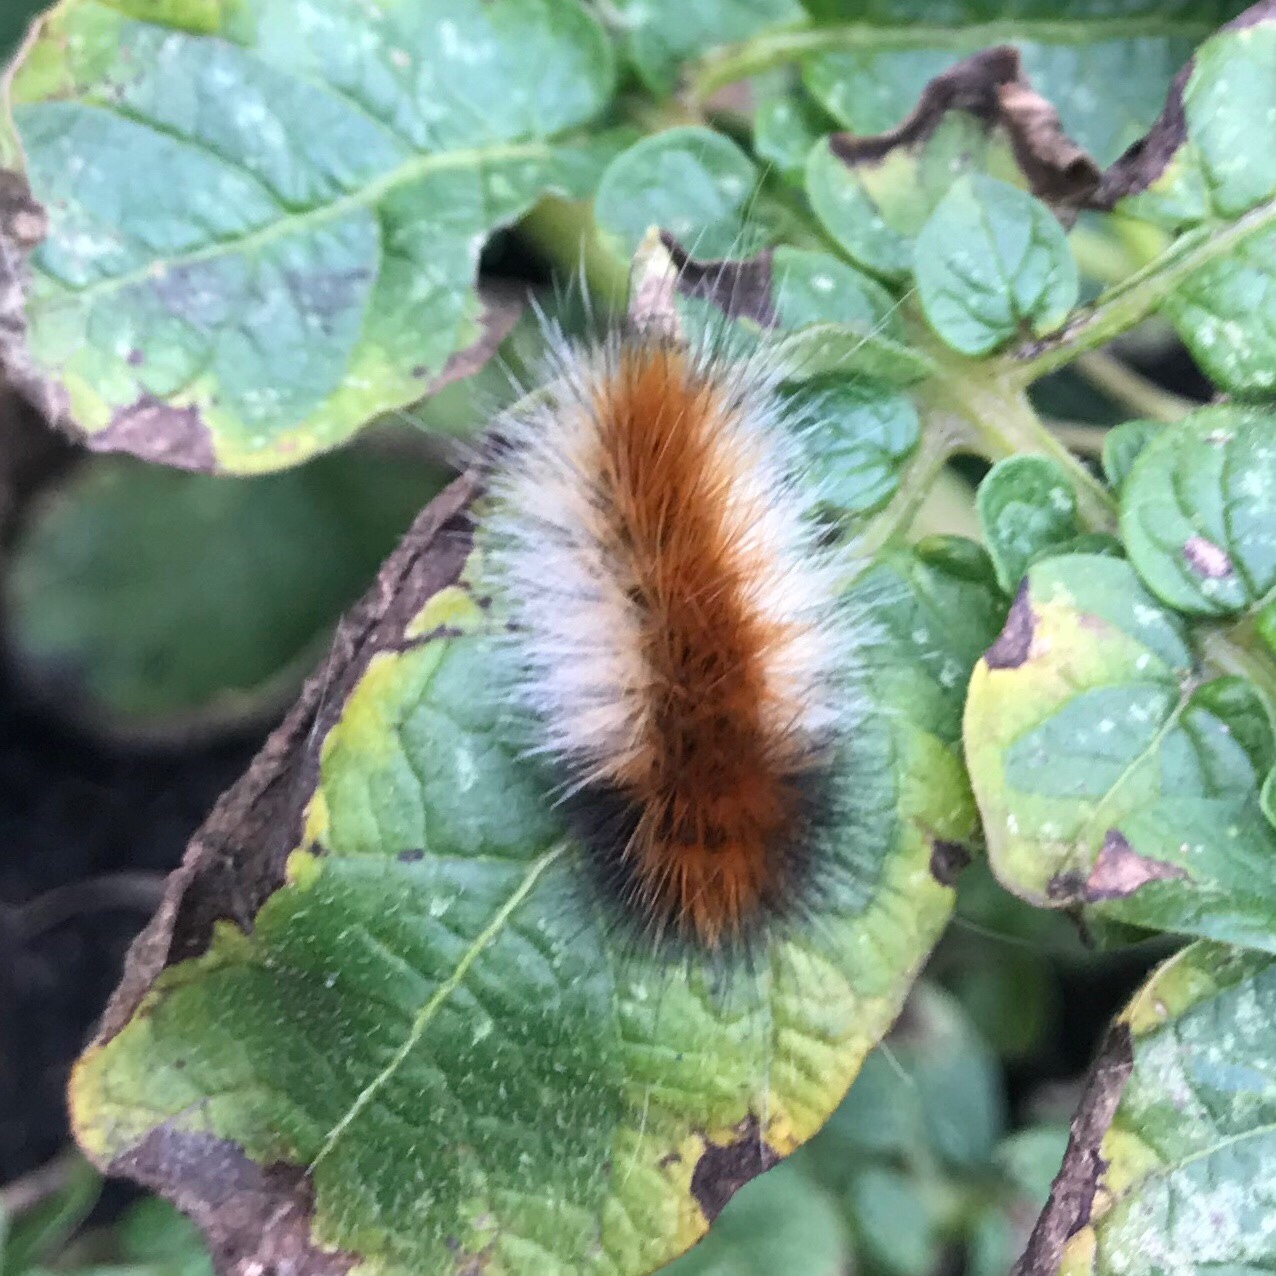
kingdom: Animalia
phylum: Arthropoda
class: Insecta
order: Lepidoptera
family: Erebidae
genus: Spilosoma
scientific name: Spilosoma virginica
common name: Virginia tiger moth
